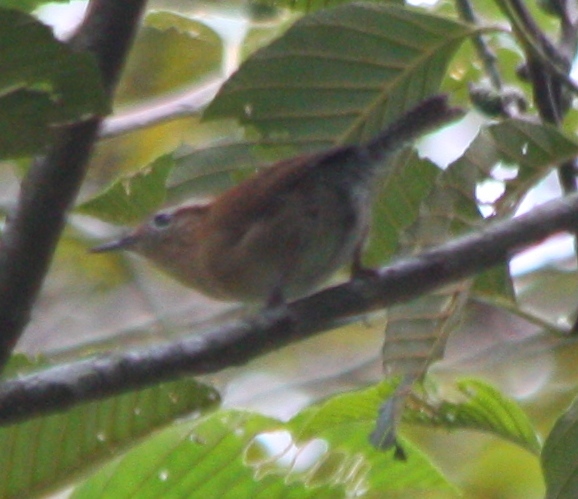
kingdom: Animalia
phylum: Chordata
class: Aves
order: Passeriformes
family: Troglodytidae
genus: Troglodytes
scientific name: Troglodytes solstitialis
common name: Mountain wren
